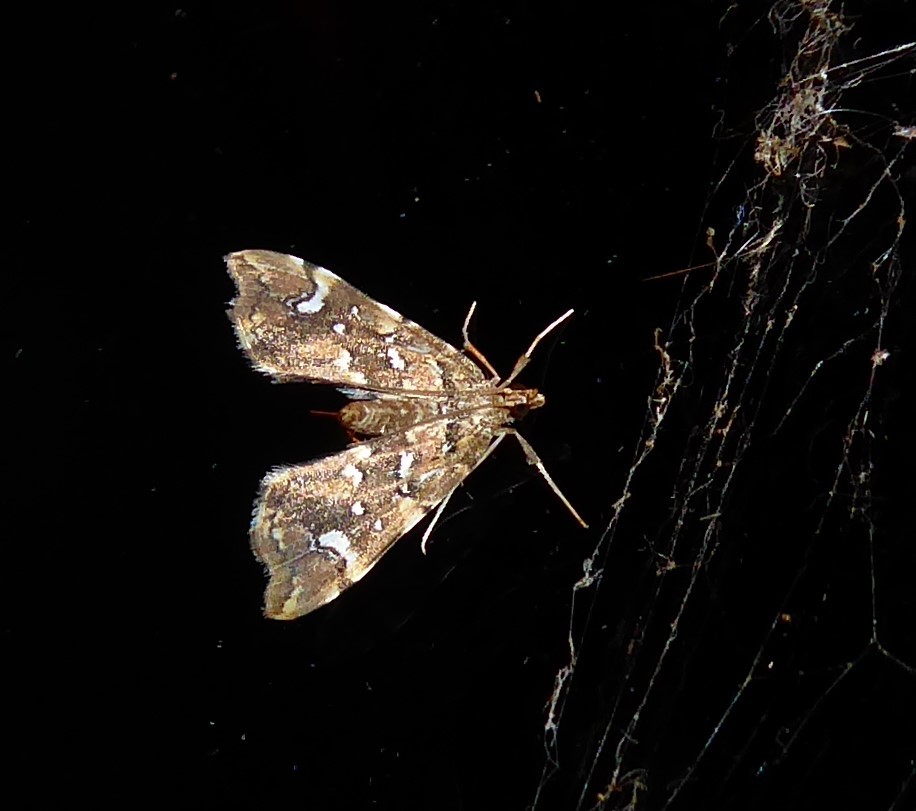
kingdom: Animalia
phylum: Arthropoda
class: Insecta
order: Lepidoptera
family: Pyralidae
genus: Musotima
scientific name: Musotima nitidalis
